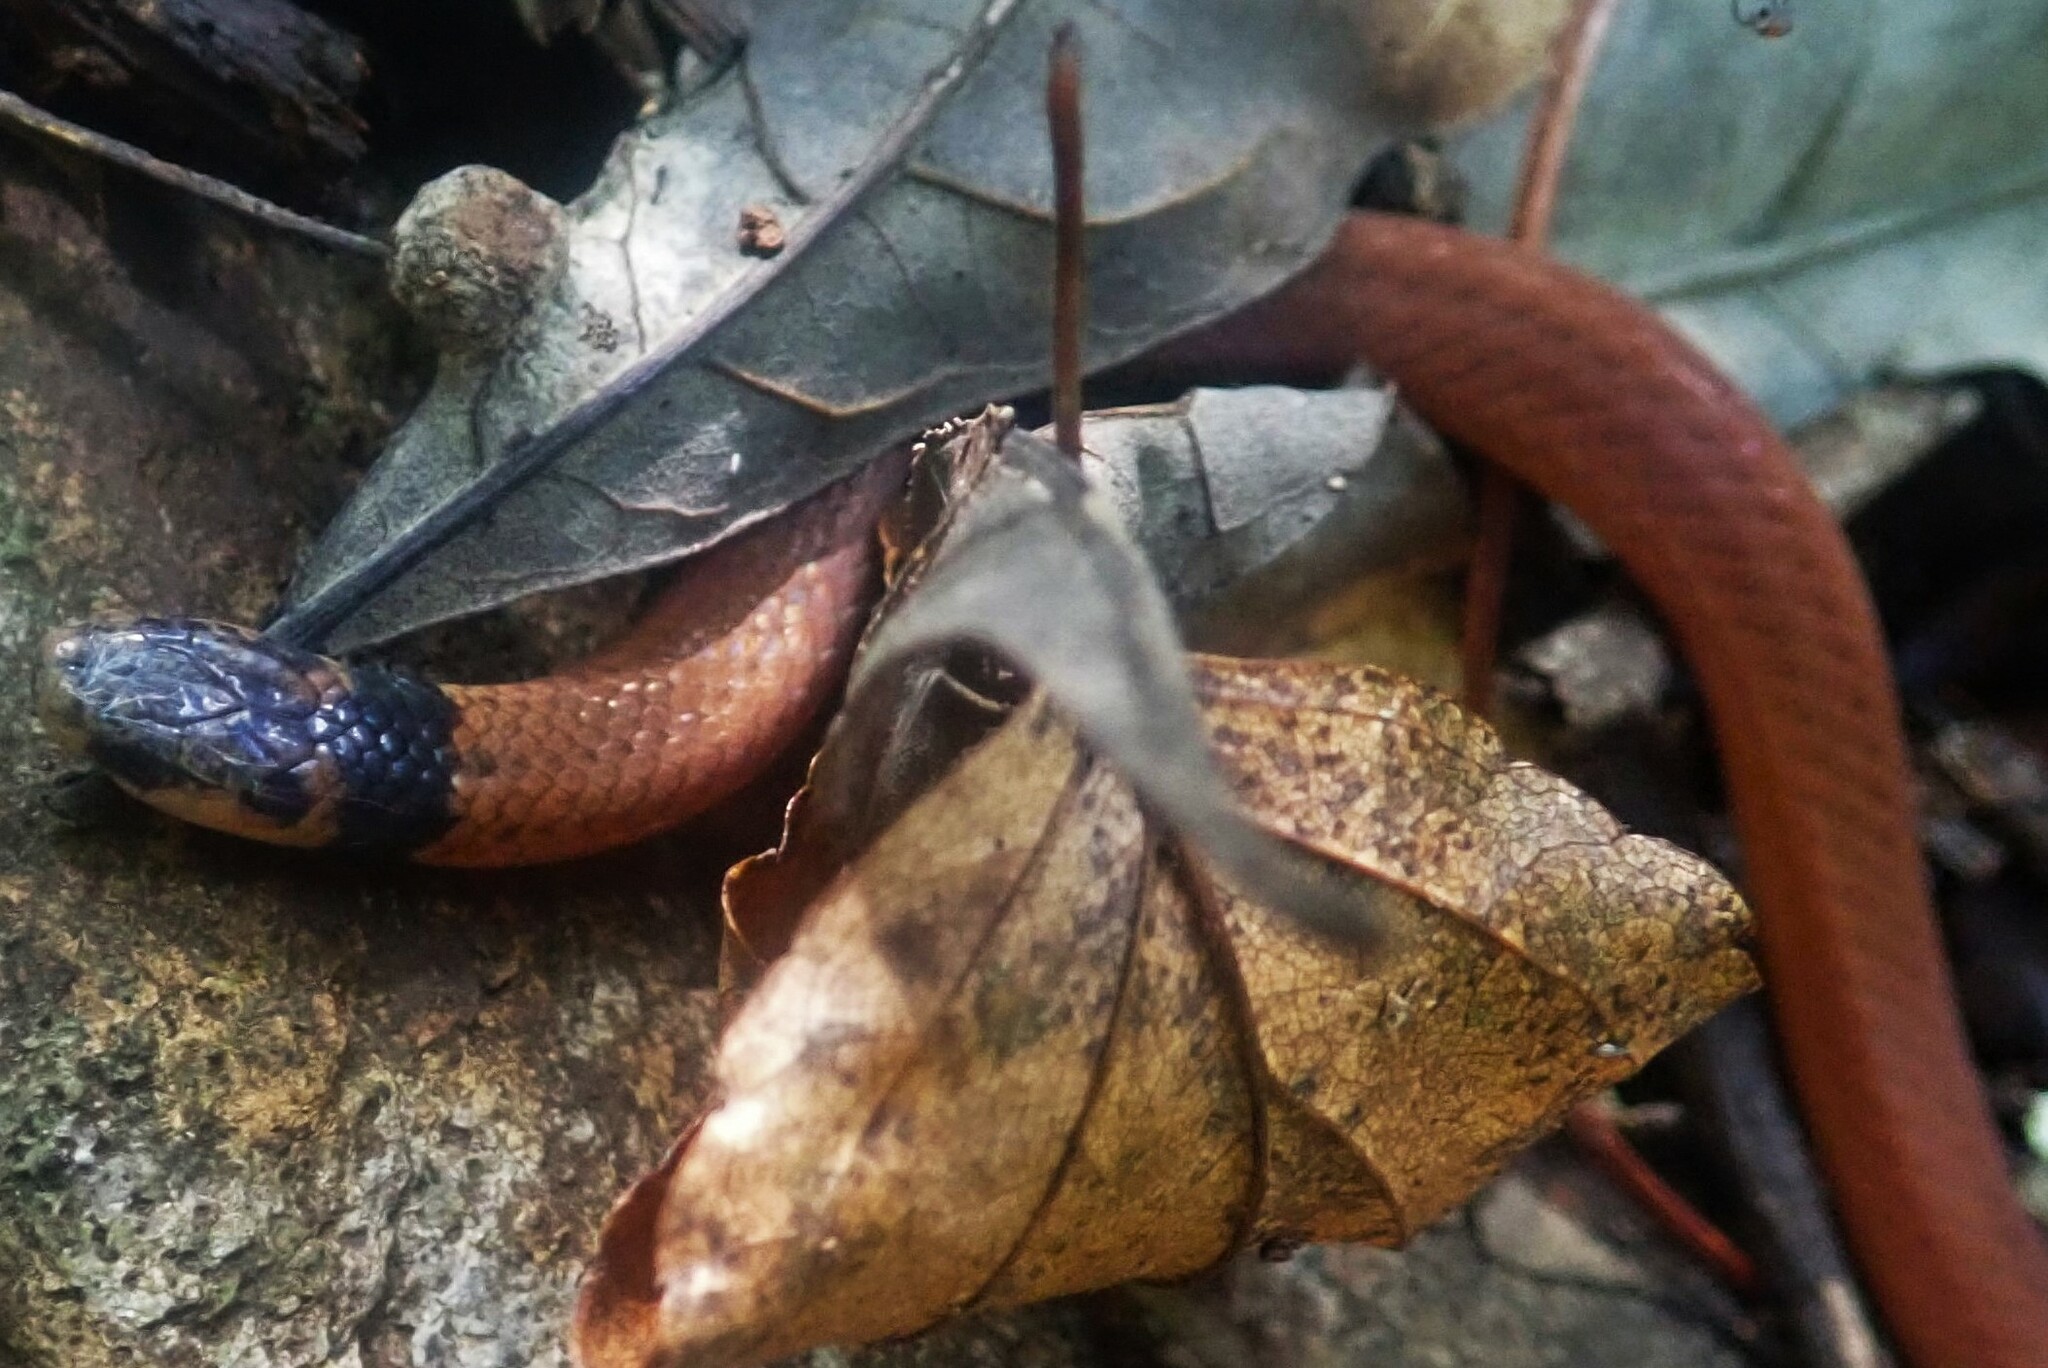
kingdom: Animalia
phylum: Chordata
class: Squamata
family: Atractaspididae
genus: Aparallactus
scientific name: Aparallactus capensis
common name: Cape centipede eater
